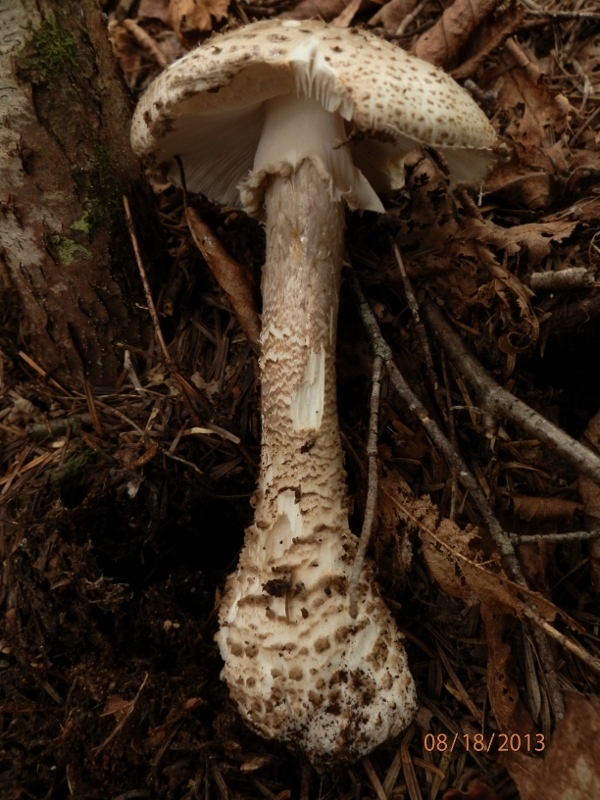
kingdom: Fungi
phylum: Basidiomycota
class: Agaricomycetes
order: Agaricales
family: Amanitaceae
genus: Amanita
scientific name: Amanita atkinsoniana
